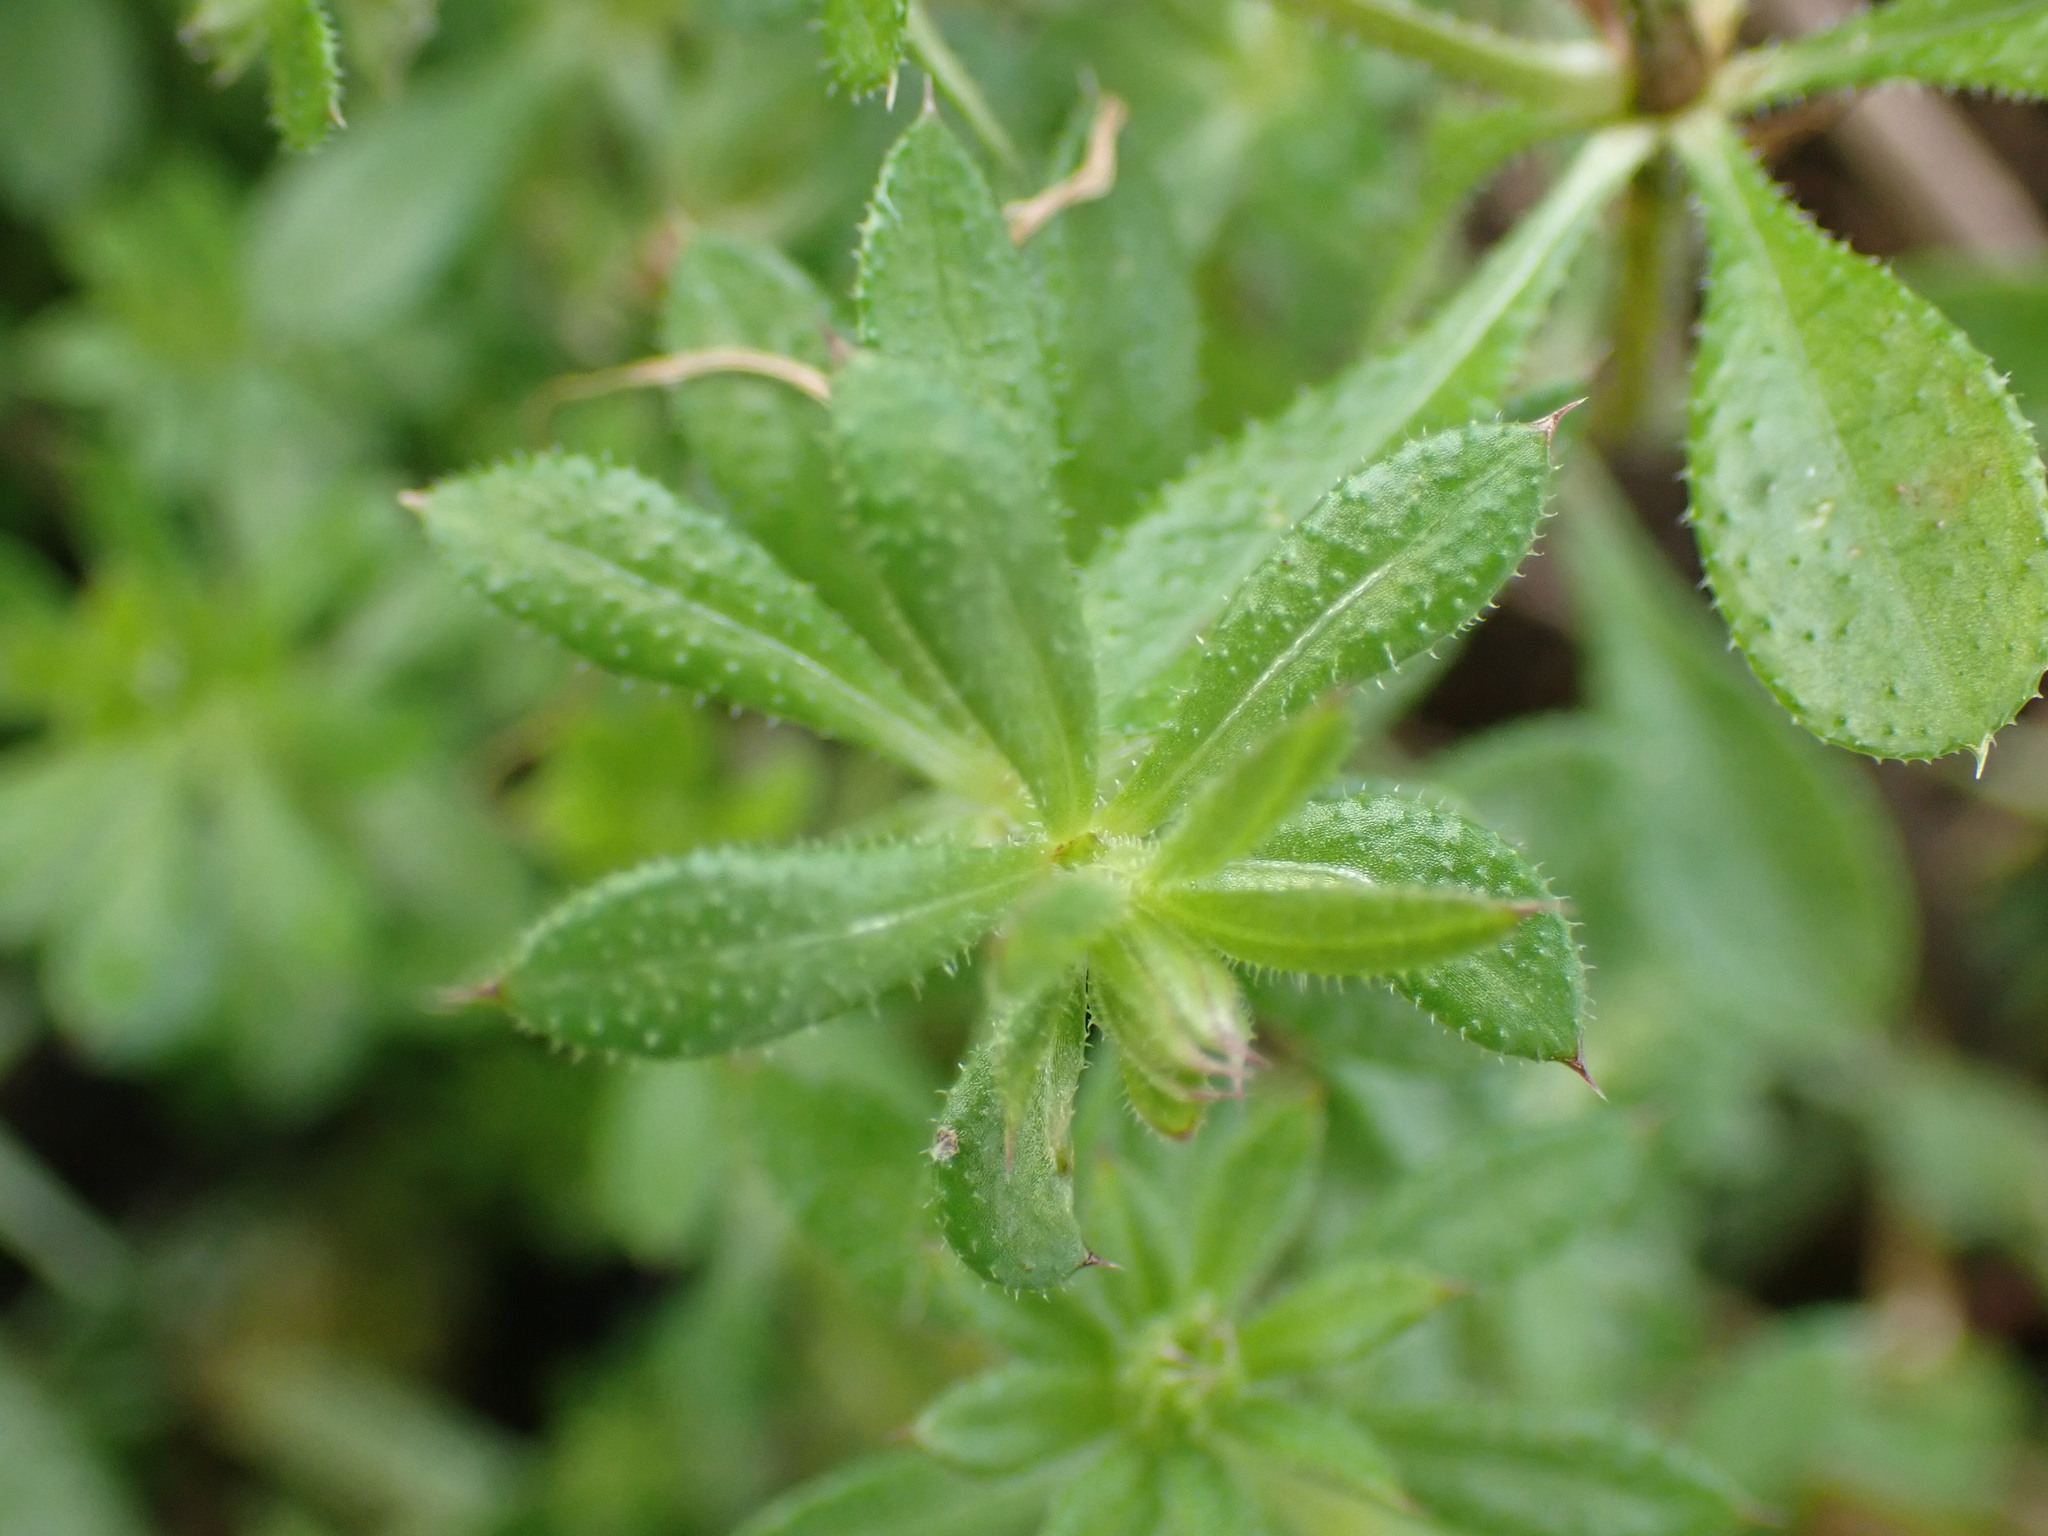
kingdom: Plantae
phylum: Tracheophyta
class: Magnoliopsida
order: Gentianales
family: Rubiaceae
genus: Galium
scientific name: Galium aparine
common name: Cleavers
